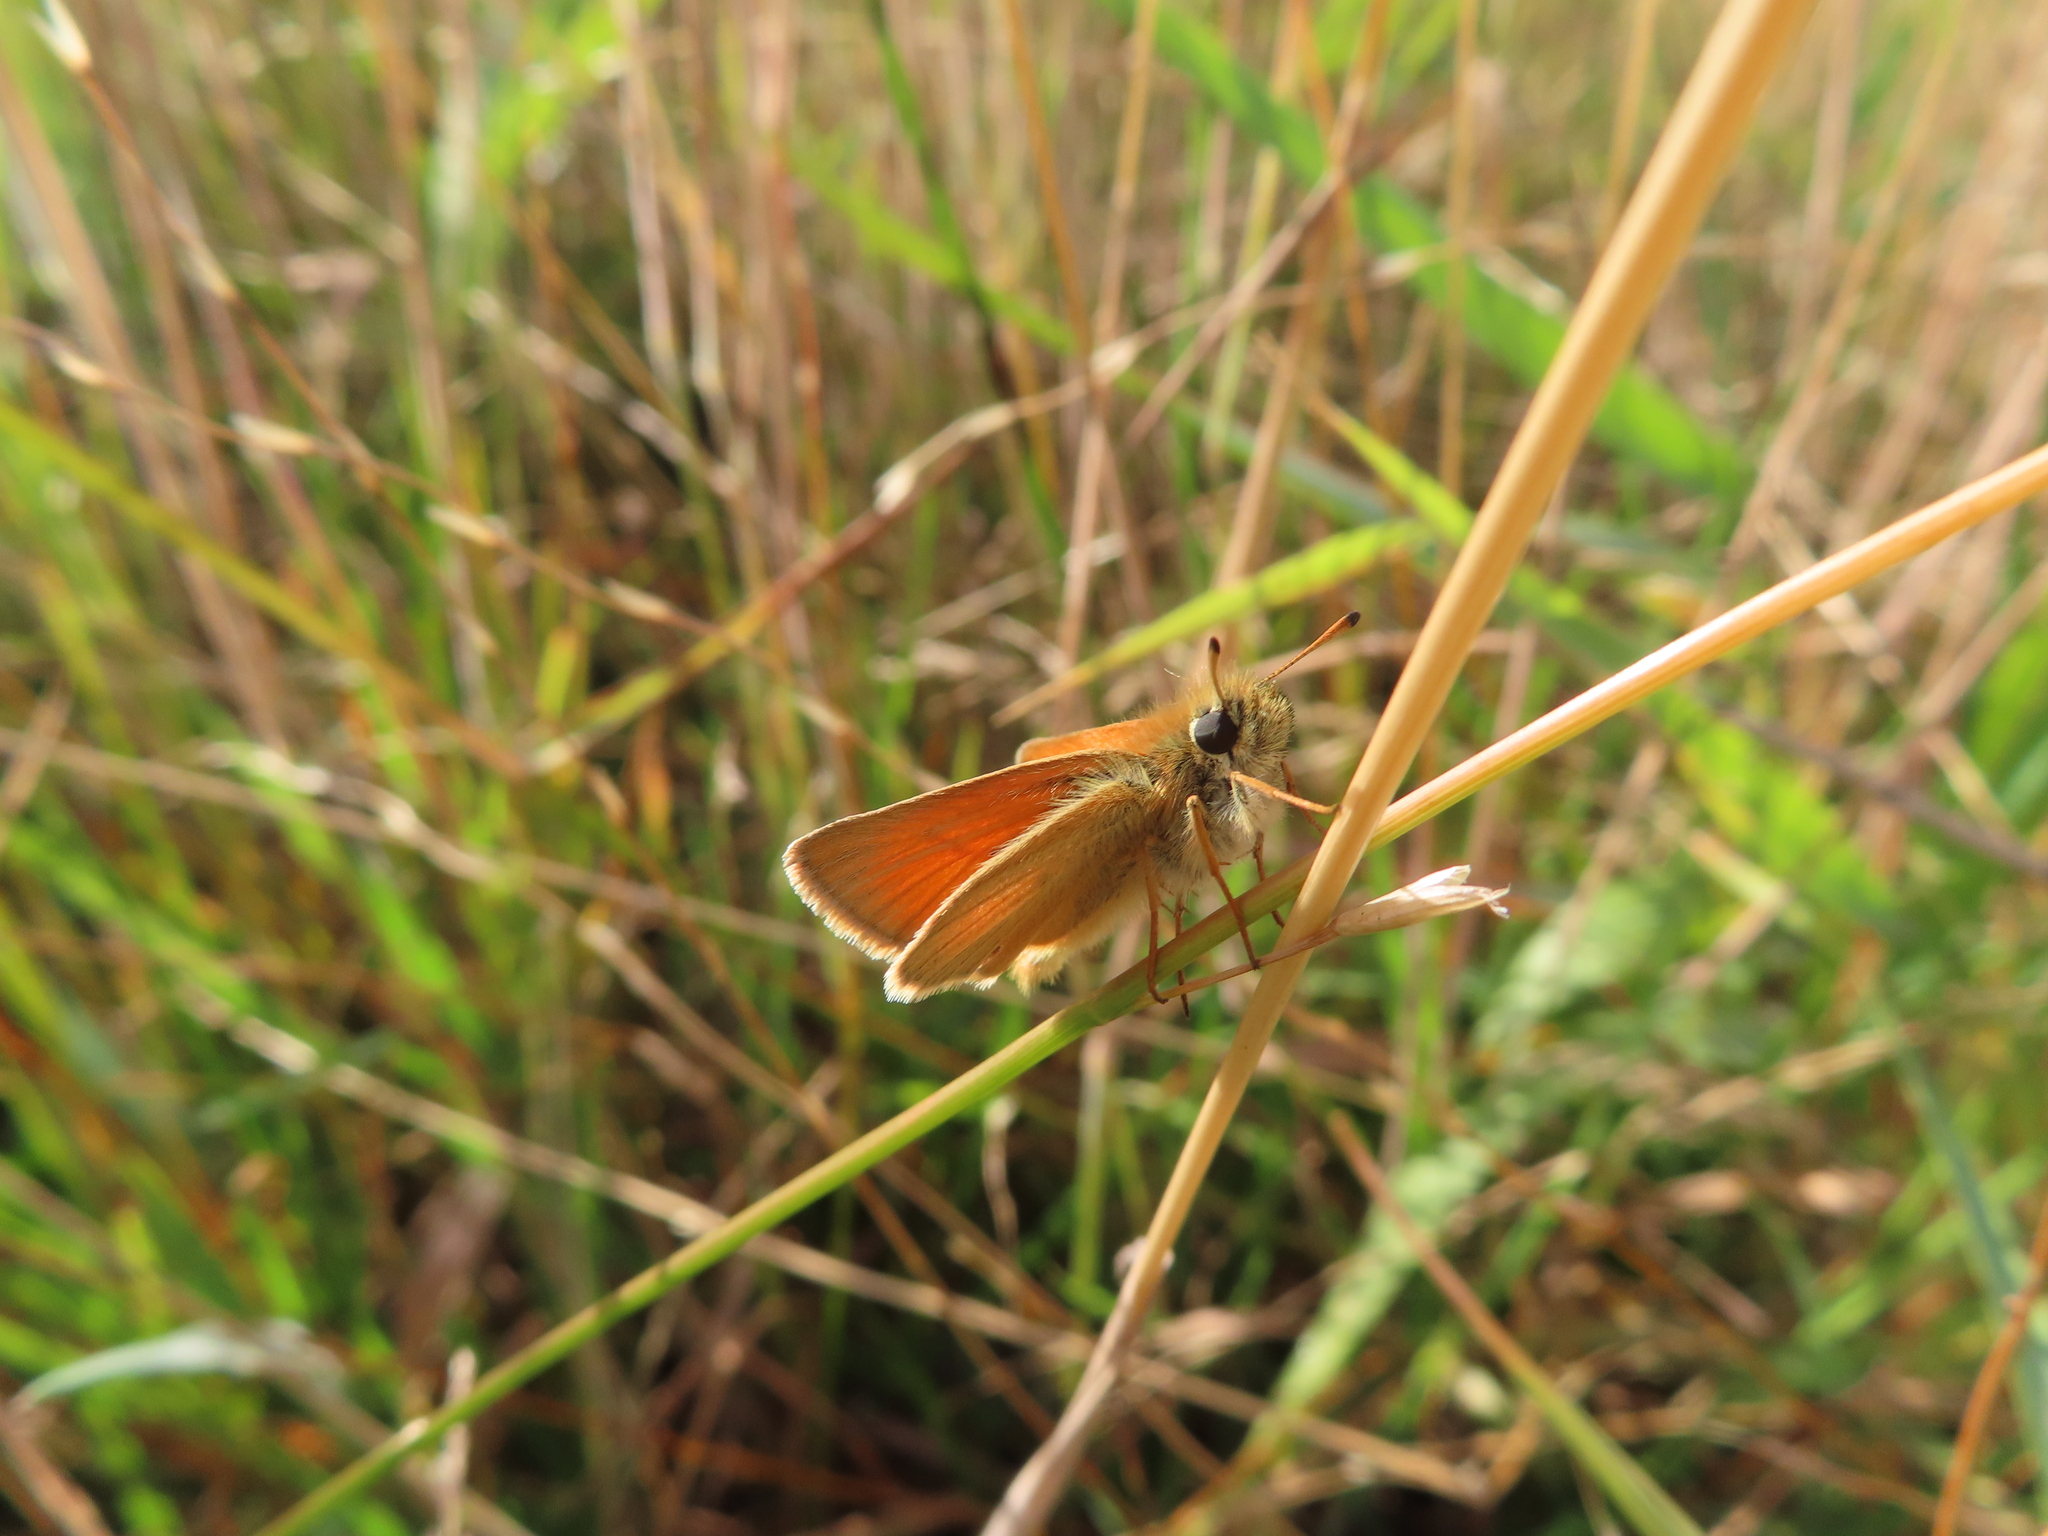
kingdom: Animalia
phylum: Arthropoda
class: Insecta
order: Lepidoptera
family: Hesperiidae
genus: Thymelicus
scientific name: Thymelicus lineola
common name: Essex skipper
